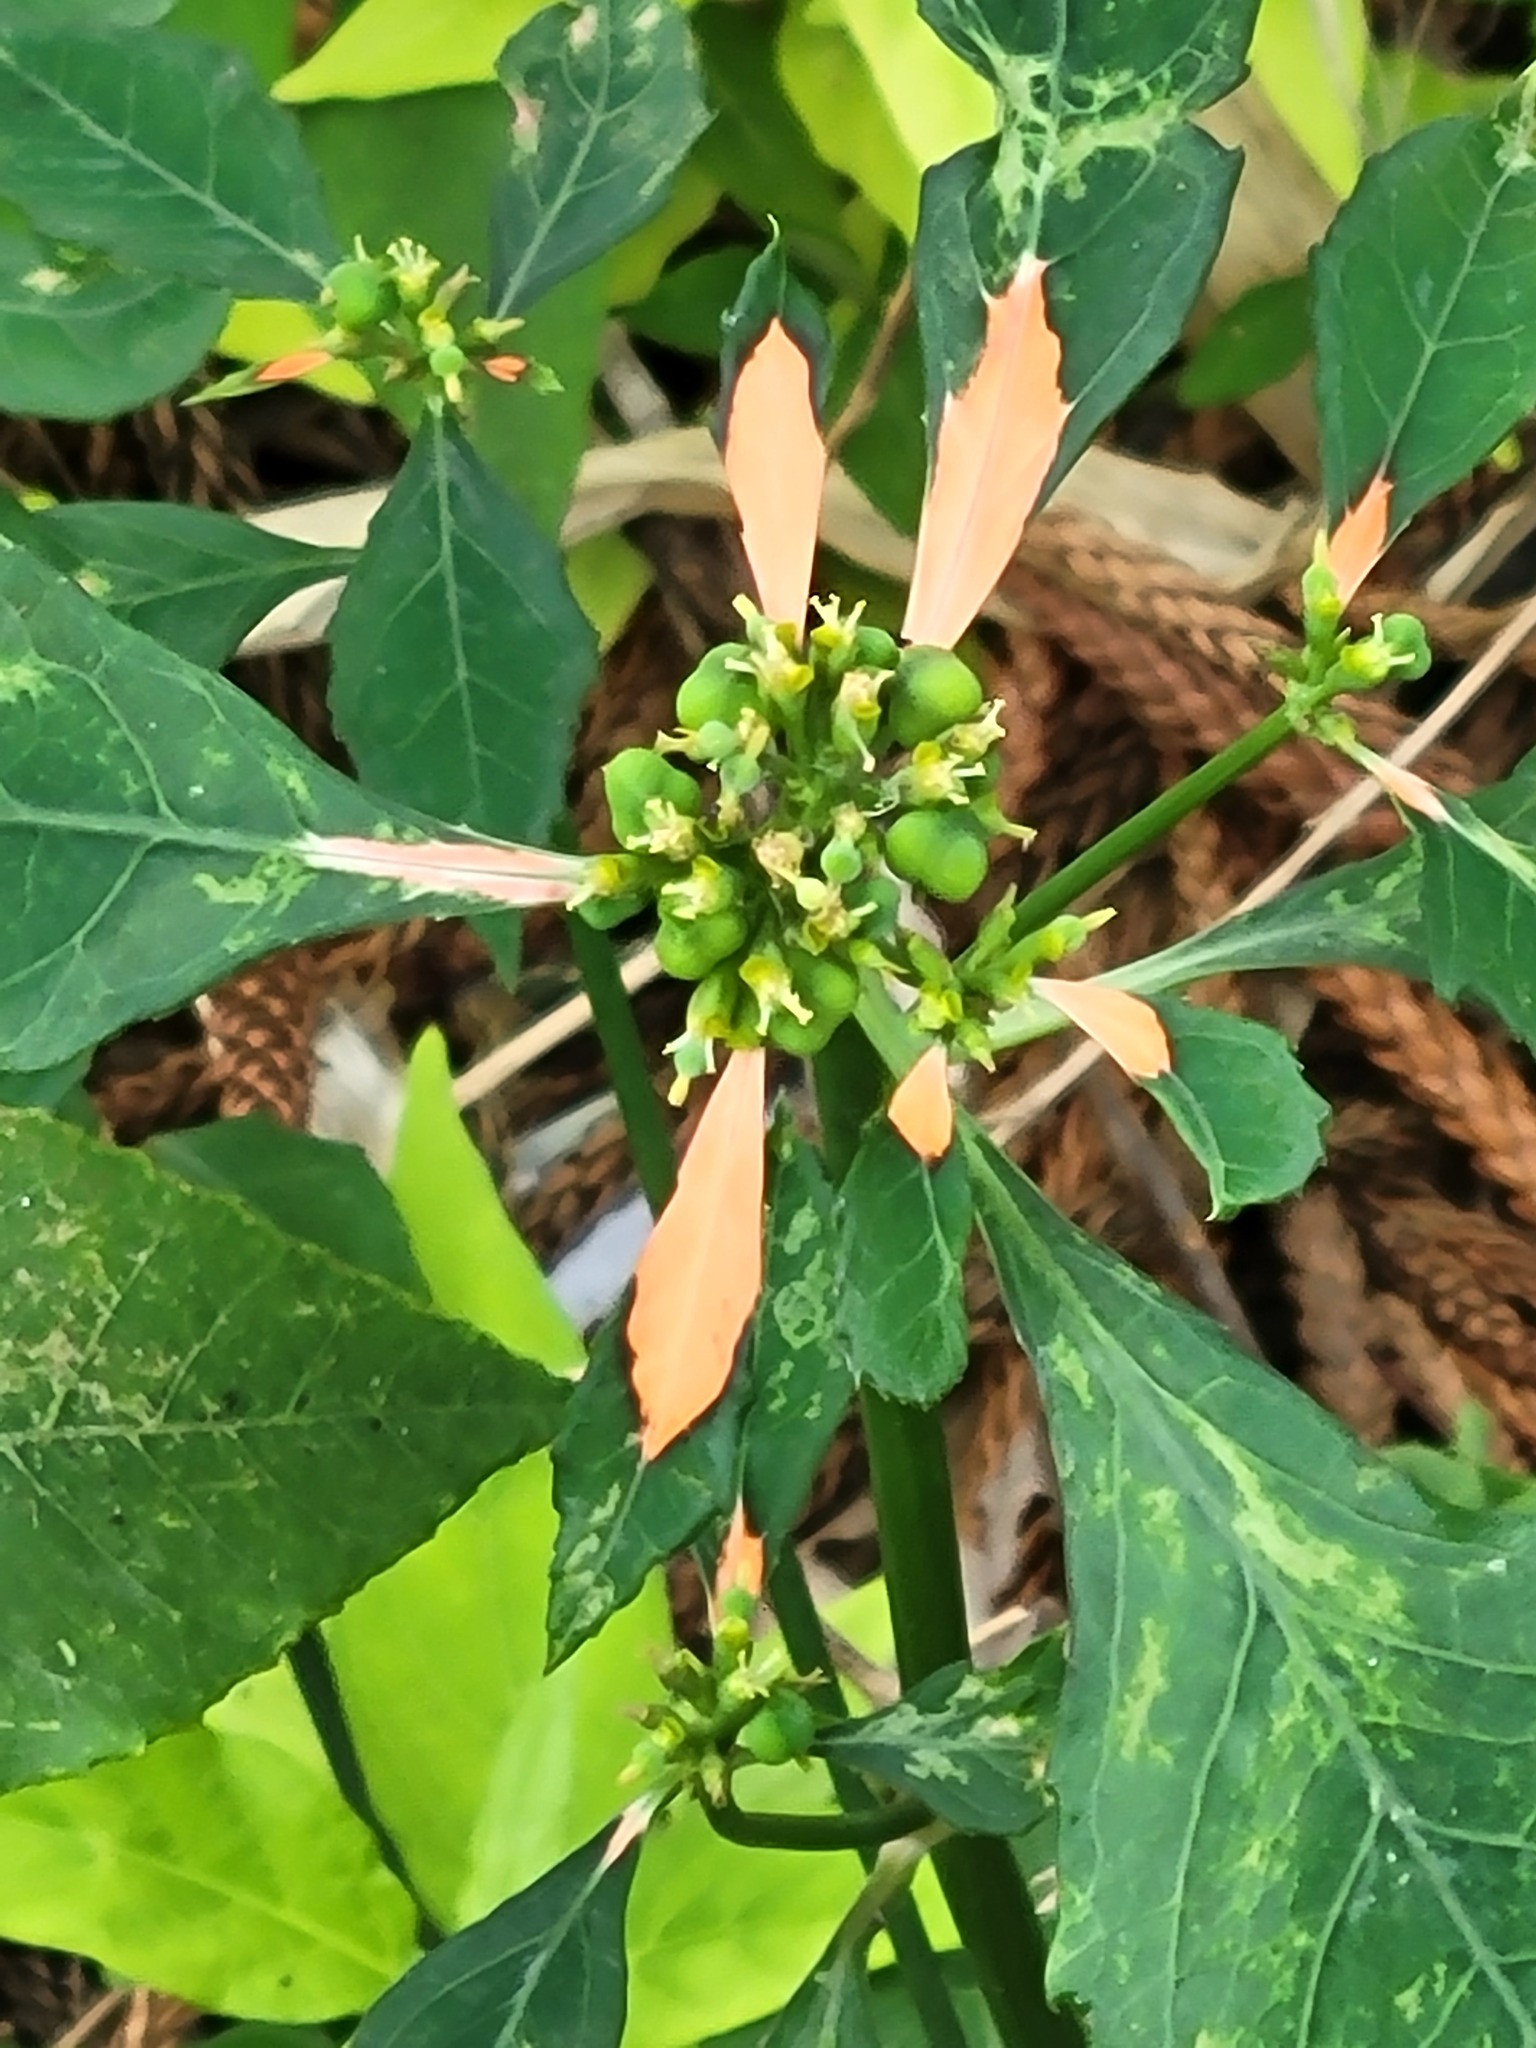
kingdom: Plantae
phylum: Tracheophyta
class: Magnoliopsida
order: Malpighiales
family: Euphorbiaceae
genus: Euphorbia
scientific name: Euphorbia heterophylla
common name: Mexican fireplant
